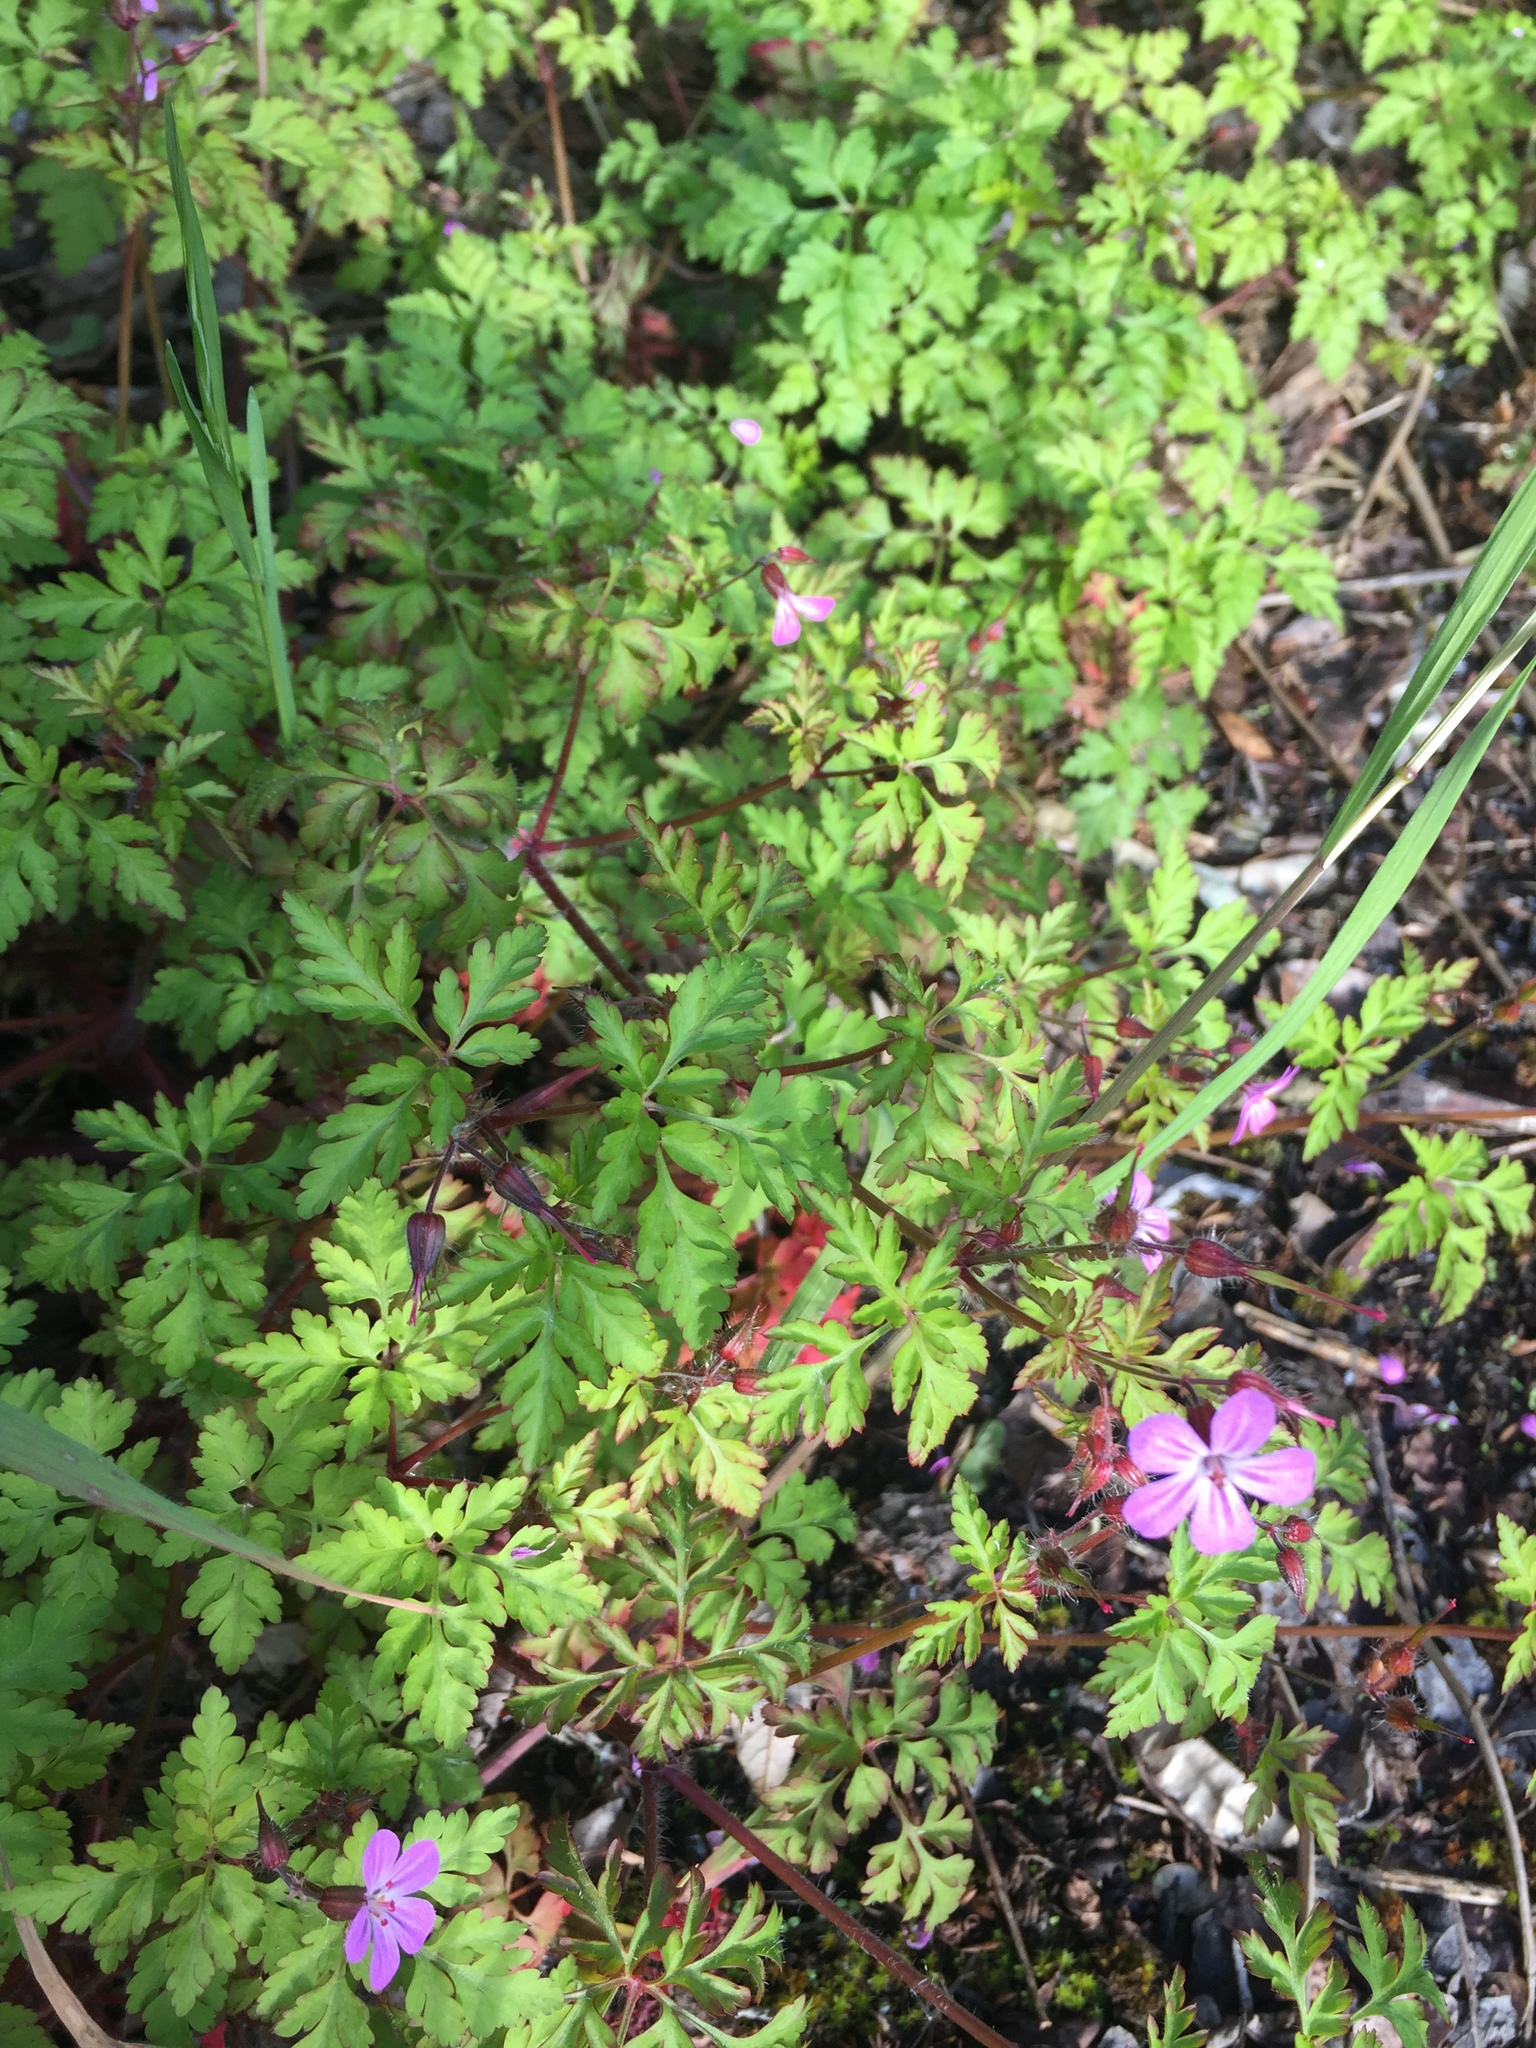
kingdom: Plantae
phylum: Tracheophyta
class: Magnoliopsida
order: Geraniales
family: Geraniaceae
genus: Geranium
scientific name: Geranium robertianum
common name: Herb-robert
